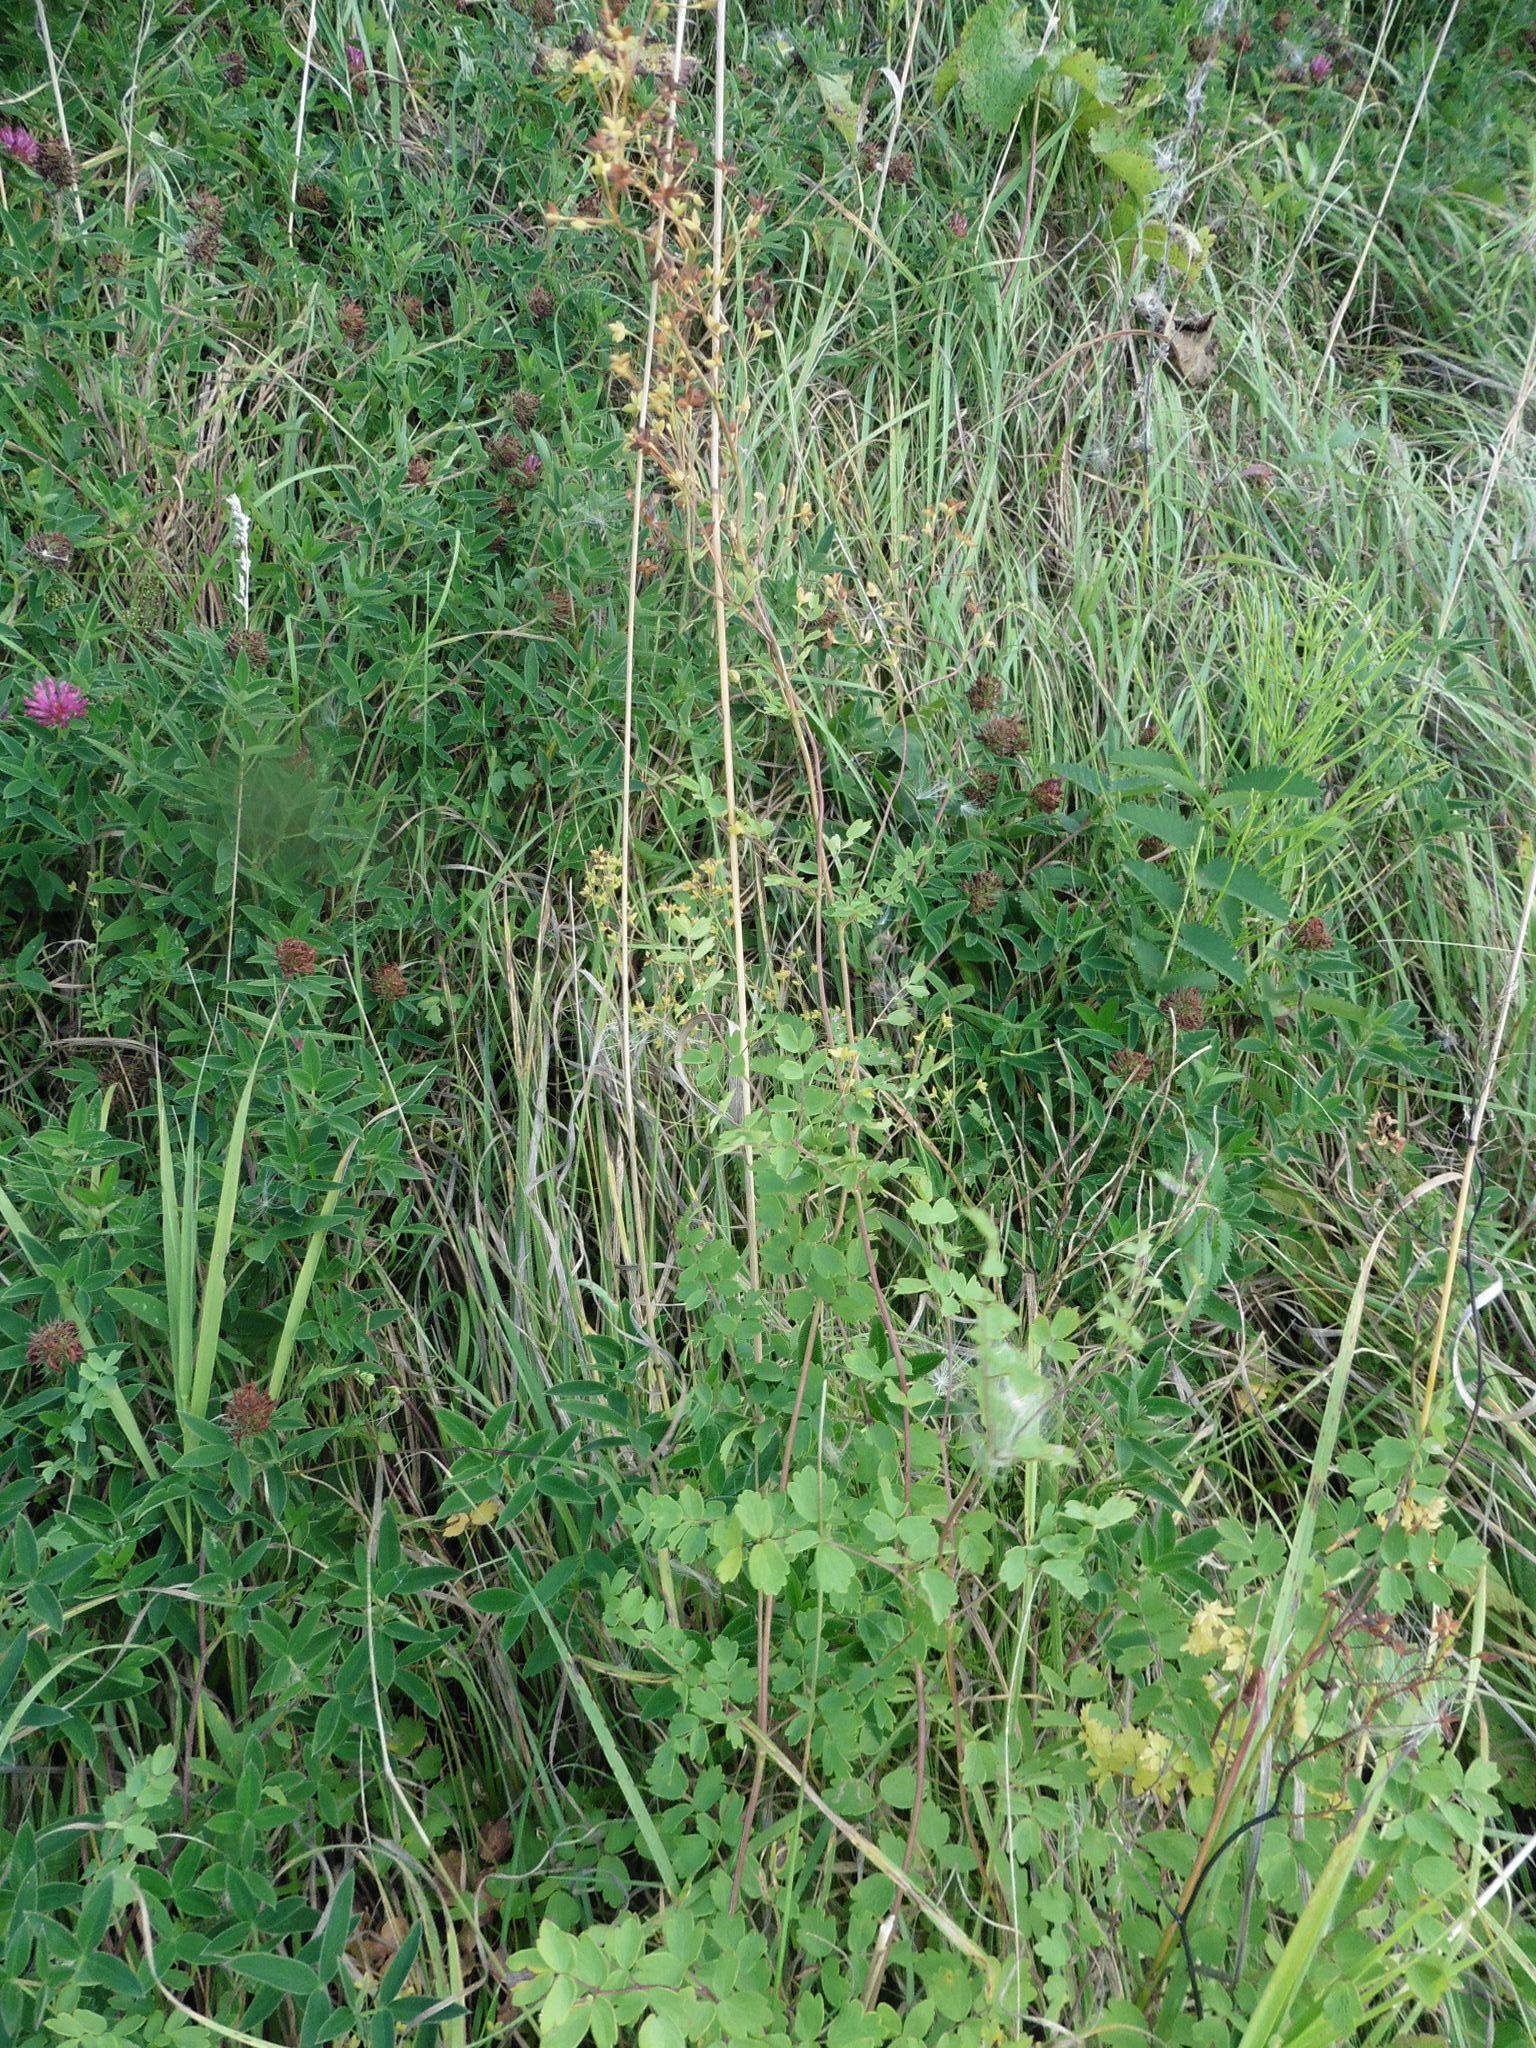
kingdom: Plantae
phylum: Tracheophyta
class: Magnoliopsida
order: Ranunculales
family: Ranunculaceae
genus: Thalictrum
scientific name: Thalictrum minus
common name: Lesser meadow-rue
